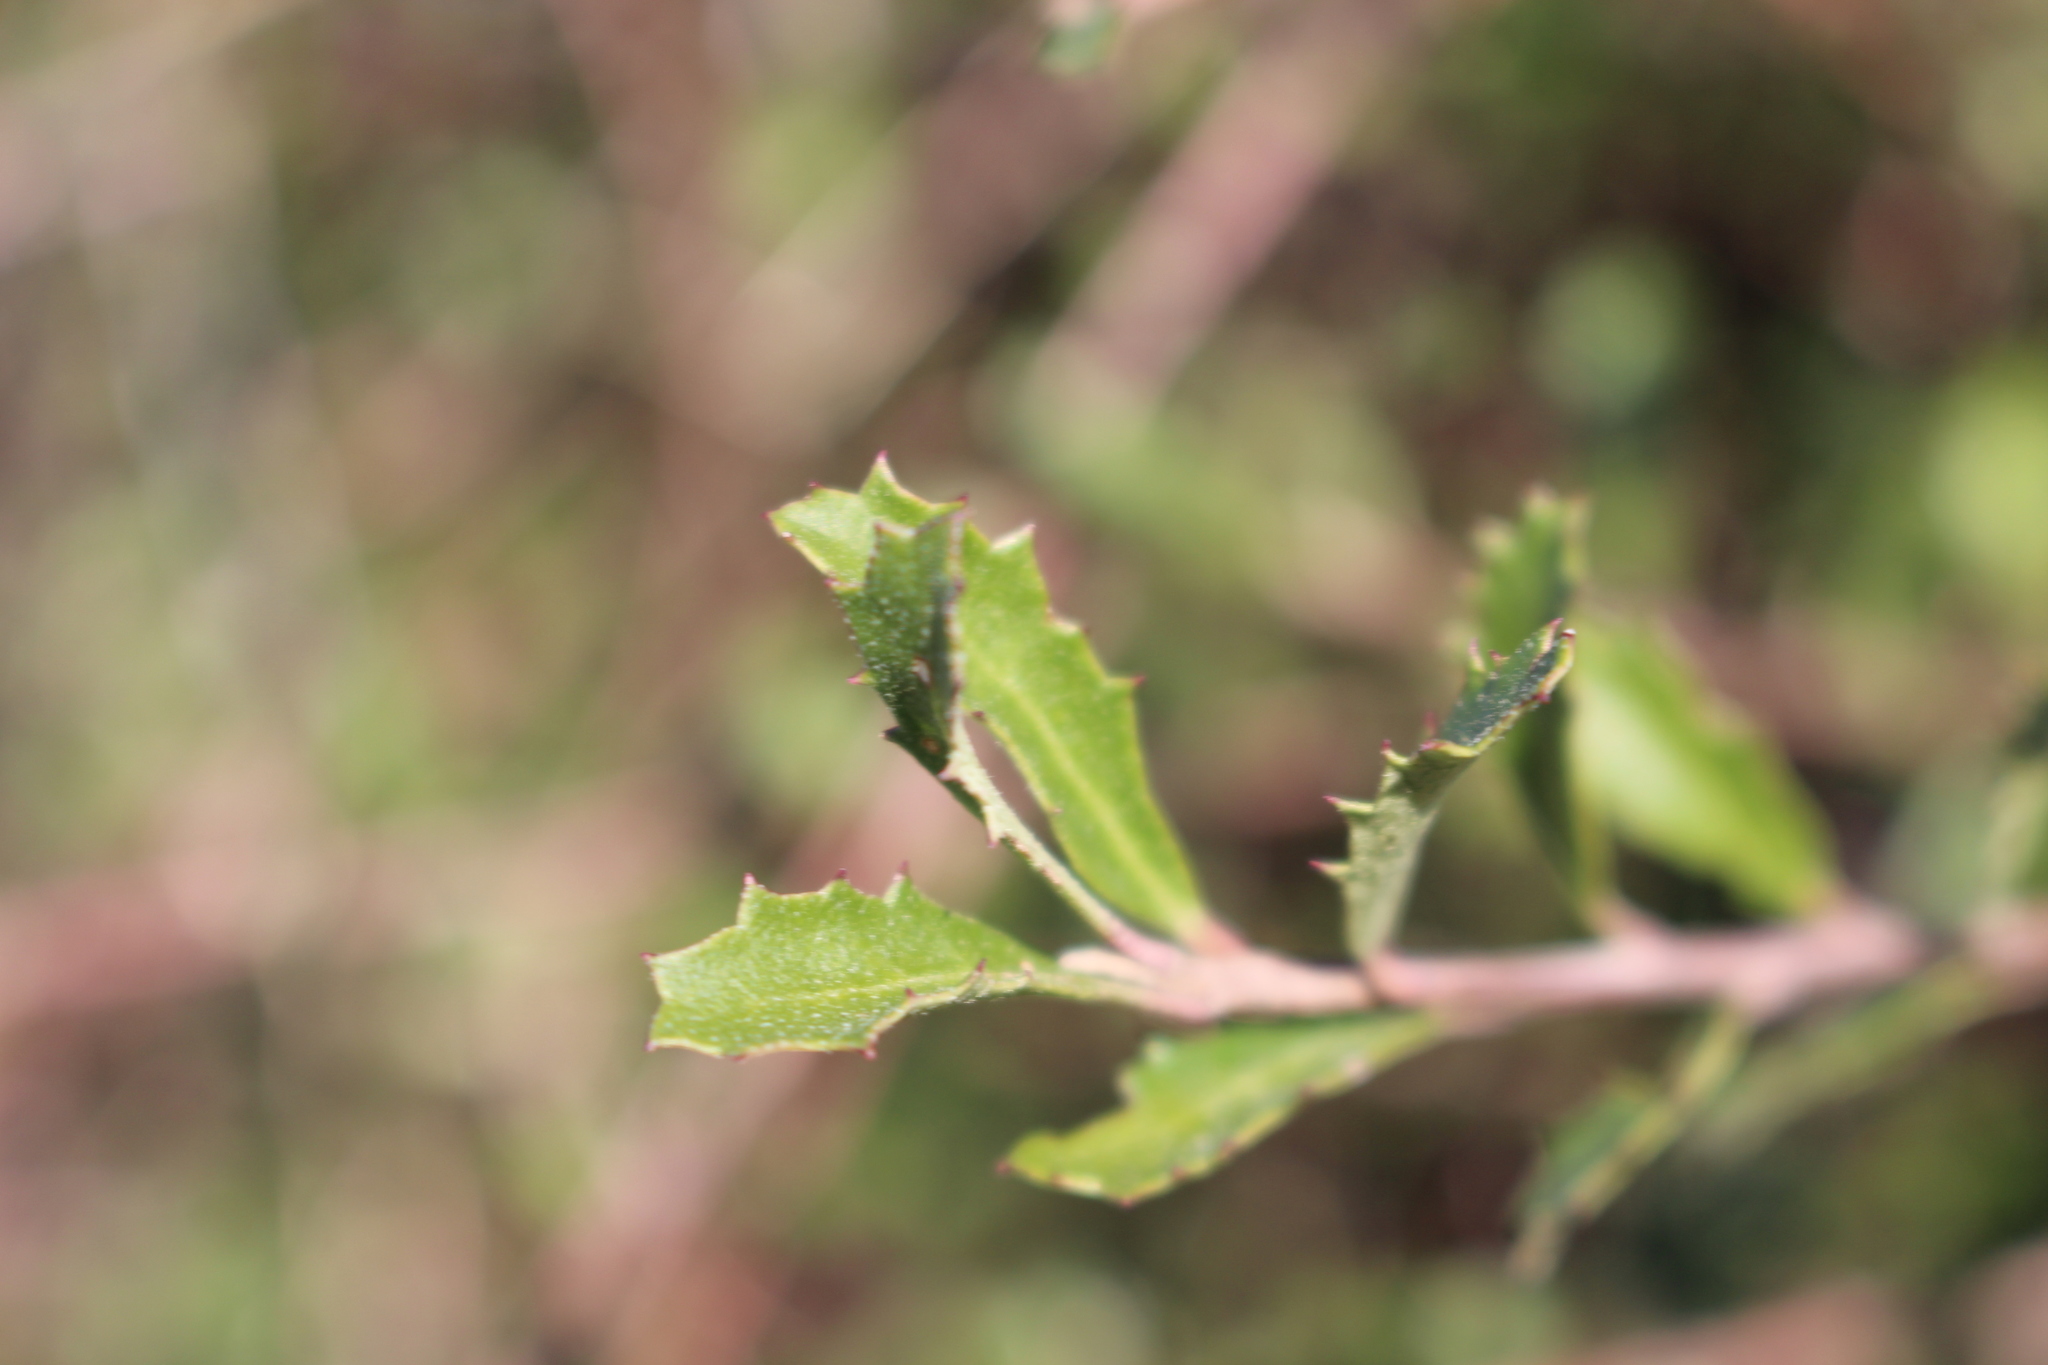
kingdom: Plantae
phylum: Tracheophyta
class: Magnoliopsida
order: Malvales
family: Malvaceae
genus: Hoheria
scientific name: Hoheria angustifolia
